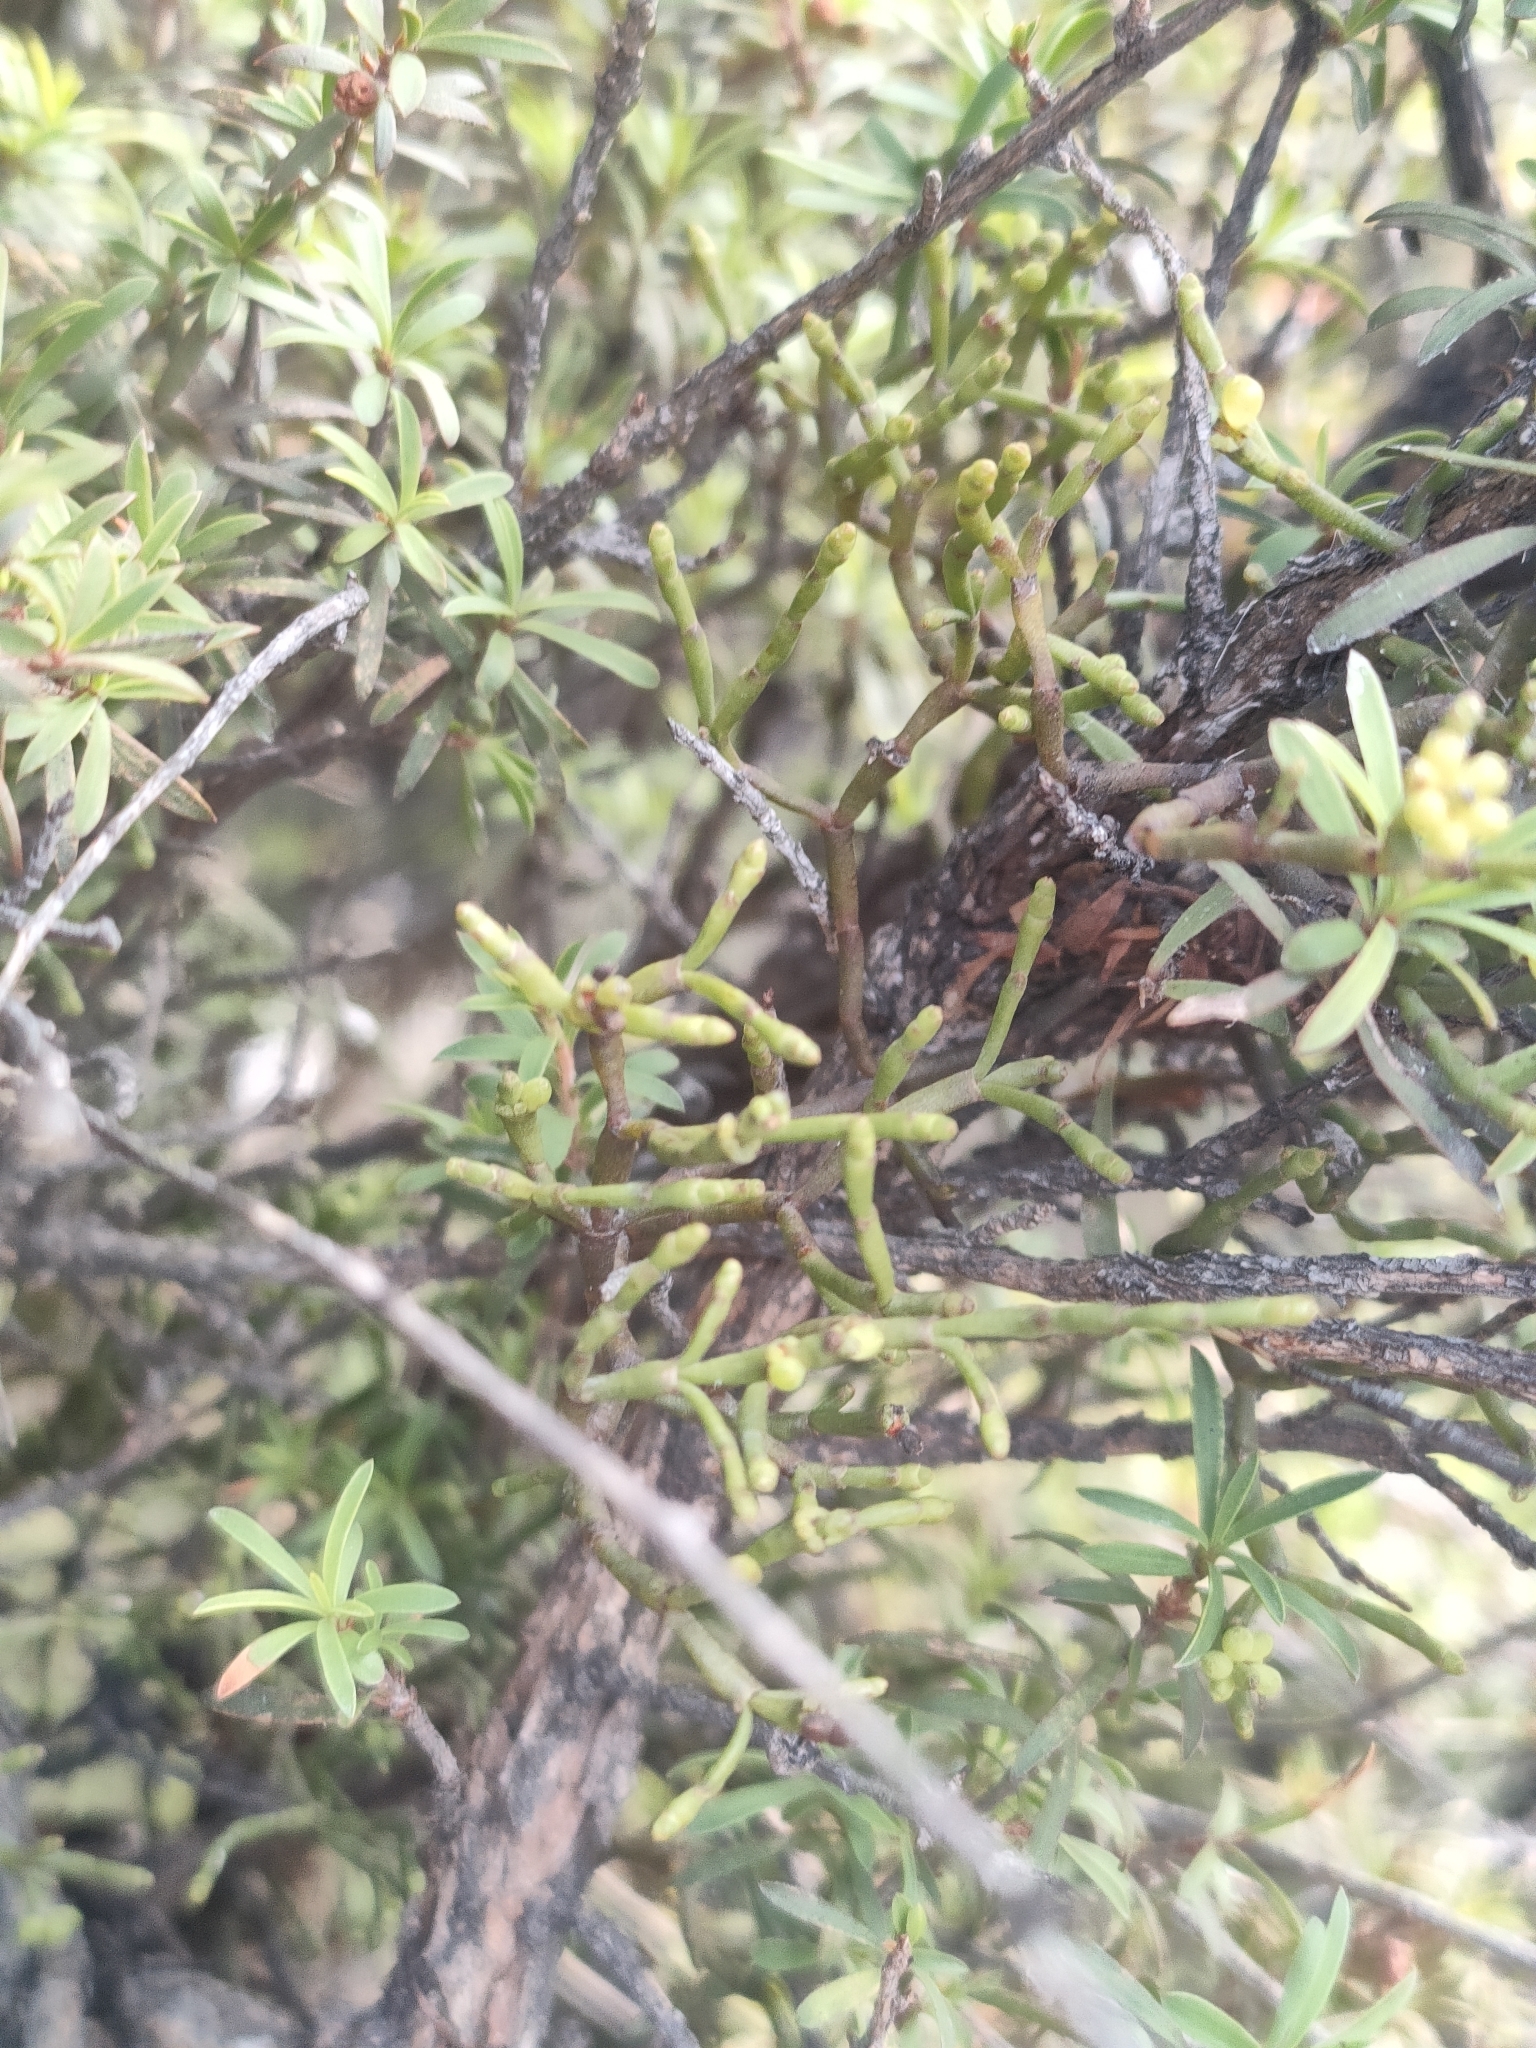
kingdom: Plantae
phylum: Tracheophyta
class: Magnoliopsida
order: Santalales
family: Viscaceae
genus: Korthalsella
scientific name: Korthalsella salicornioides
